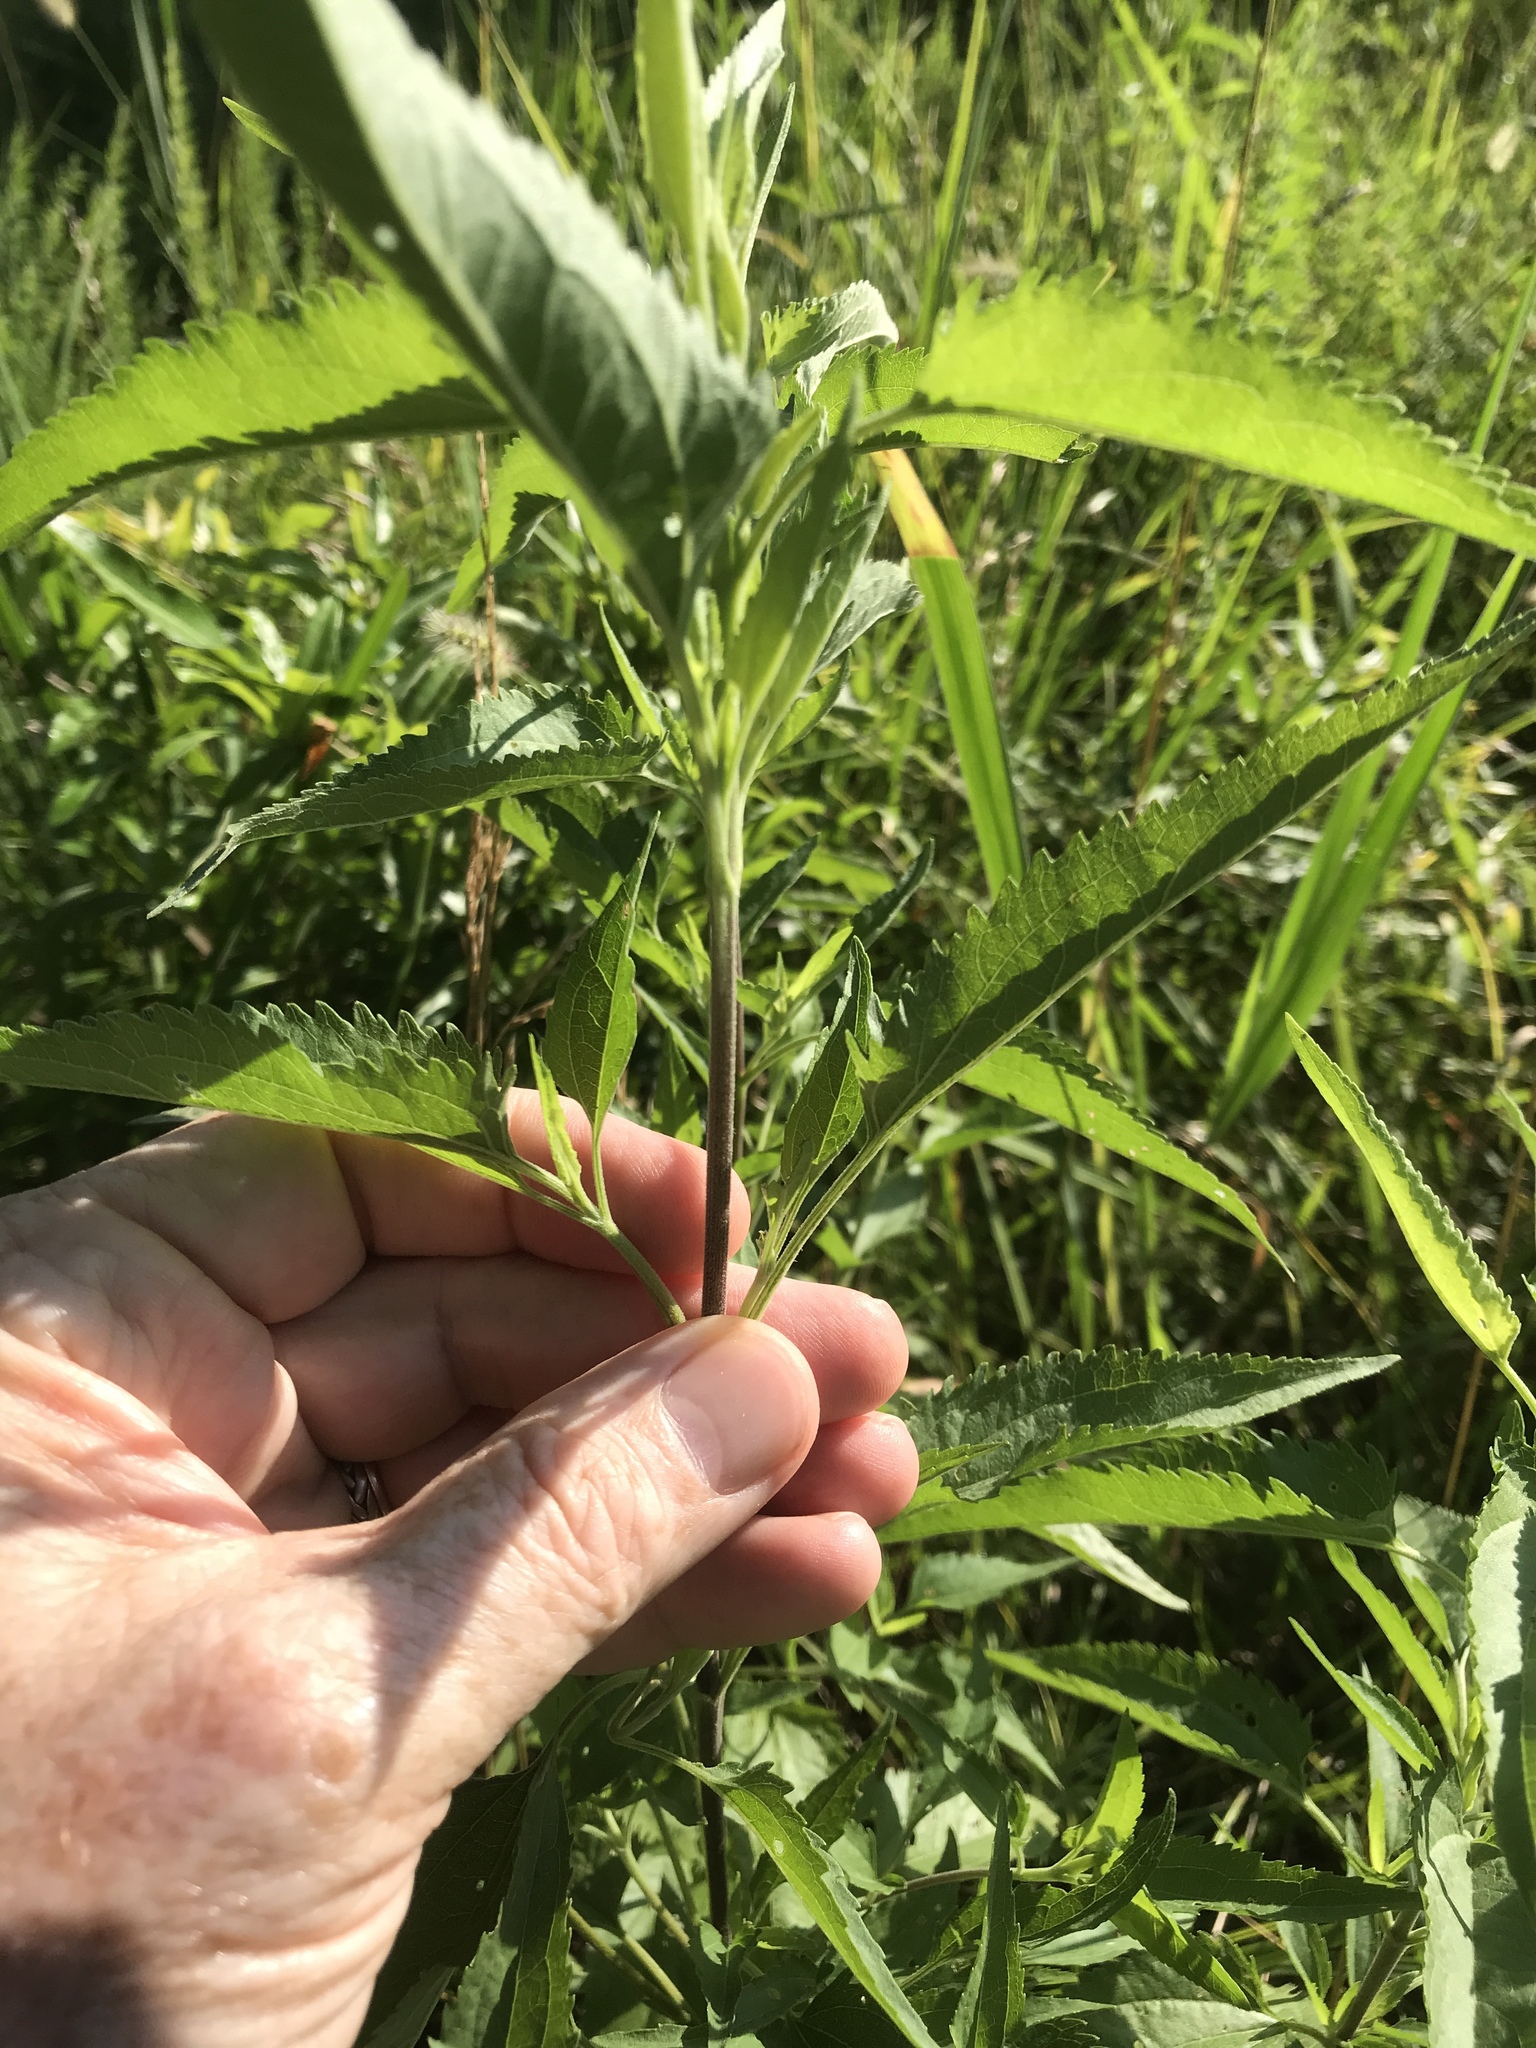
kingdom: Plantae
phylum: Tracheophyta
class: Magnoliopsida
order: Asterales
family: Asteraceae
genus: Eupatorium
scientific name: Eupatorium serotinum
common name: Late boneset
